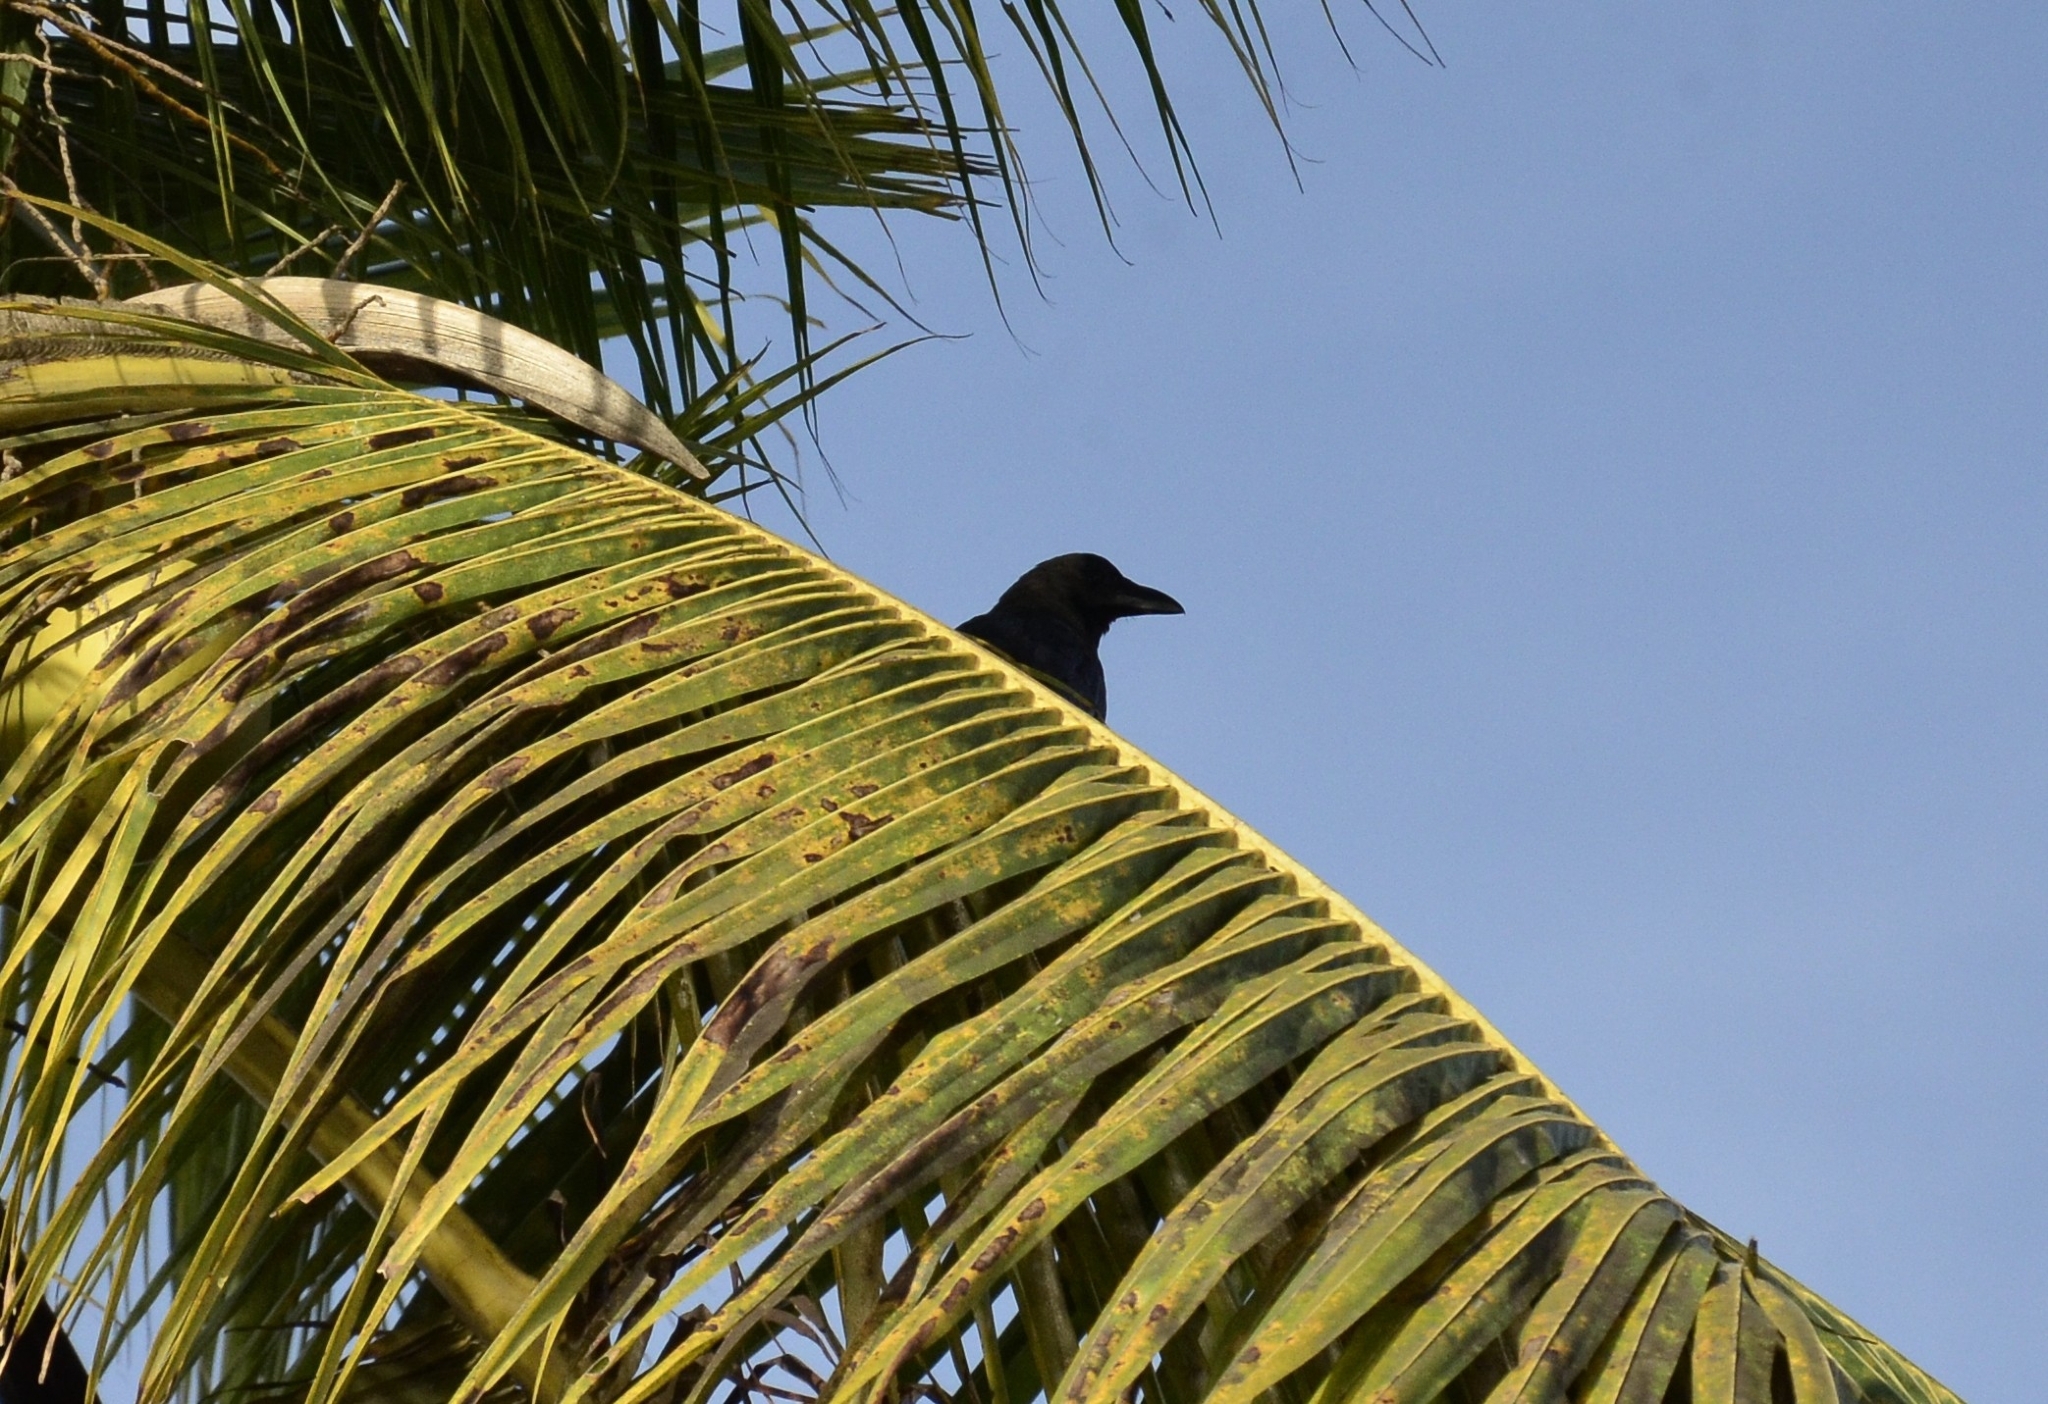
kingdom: Animalia
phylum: Chordata
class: Aves
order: Passeriformes
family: Corvidae
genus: Corvus
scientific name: Corvus macrorhynchos
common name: Large-billed crow
